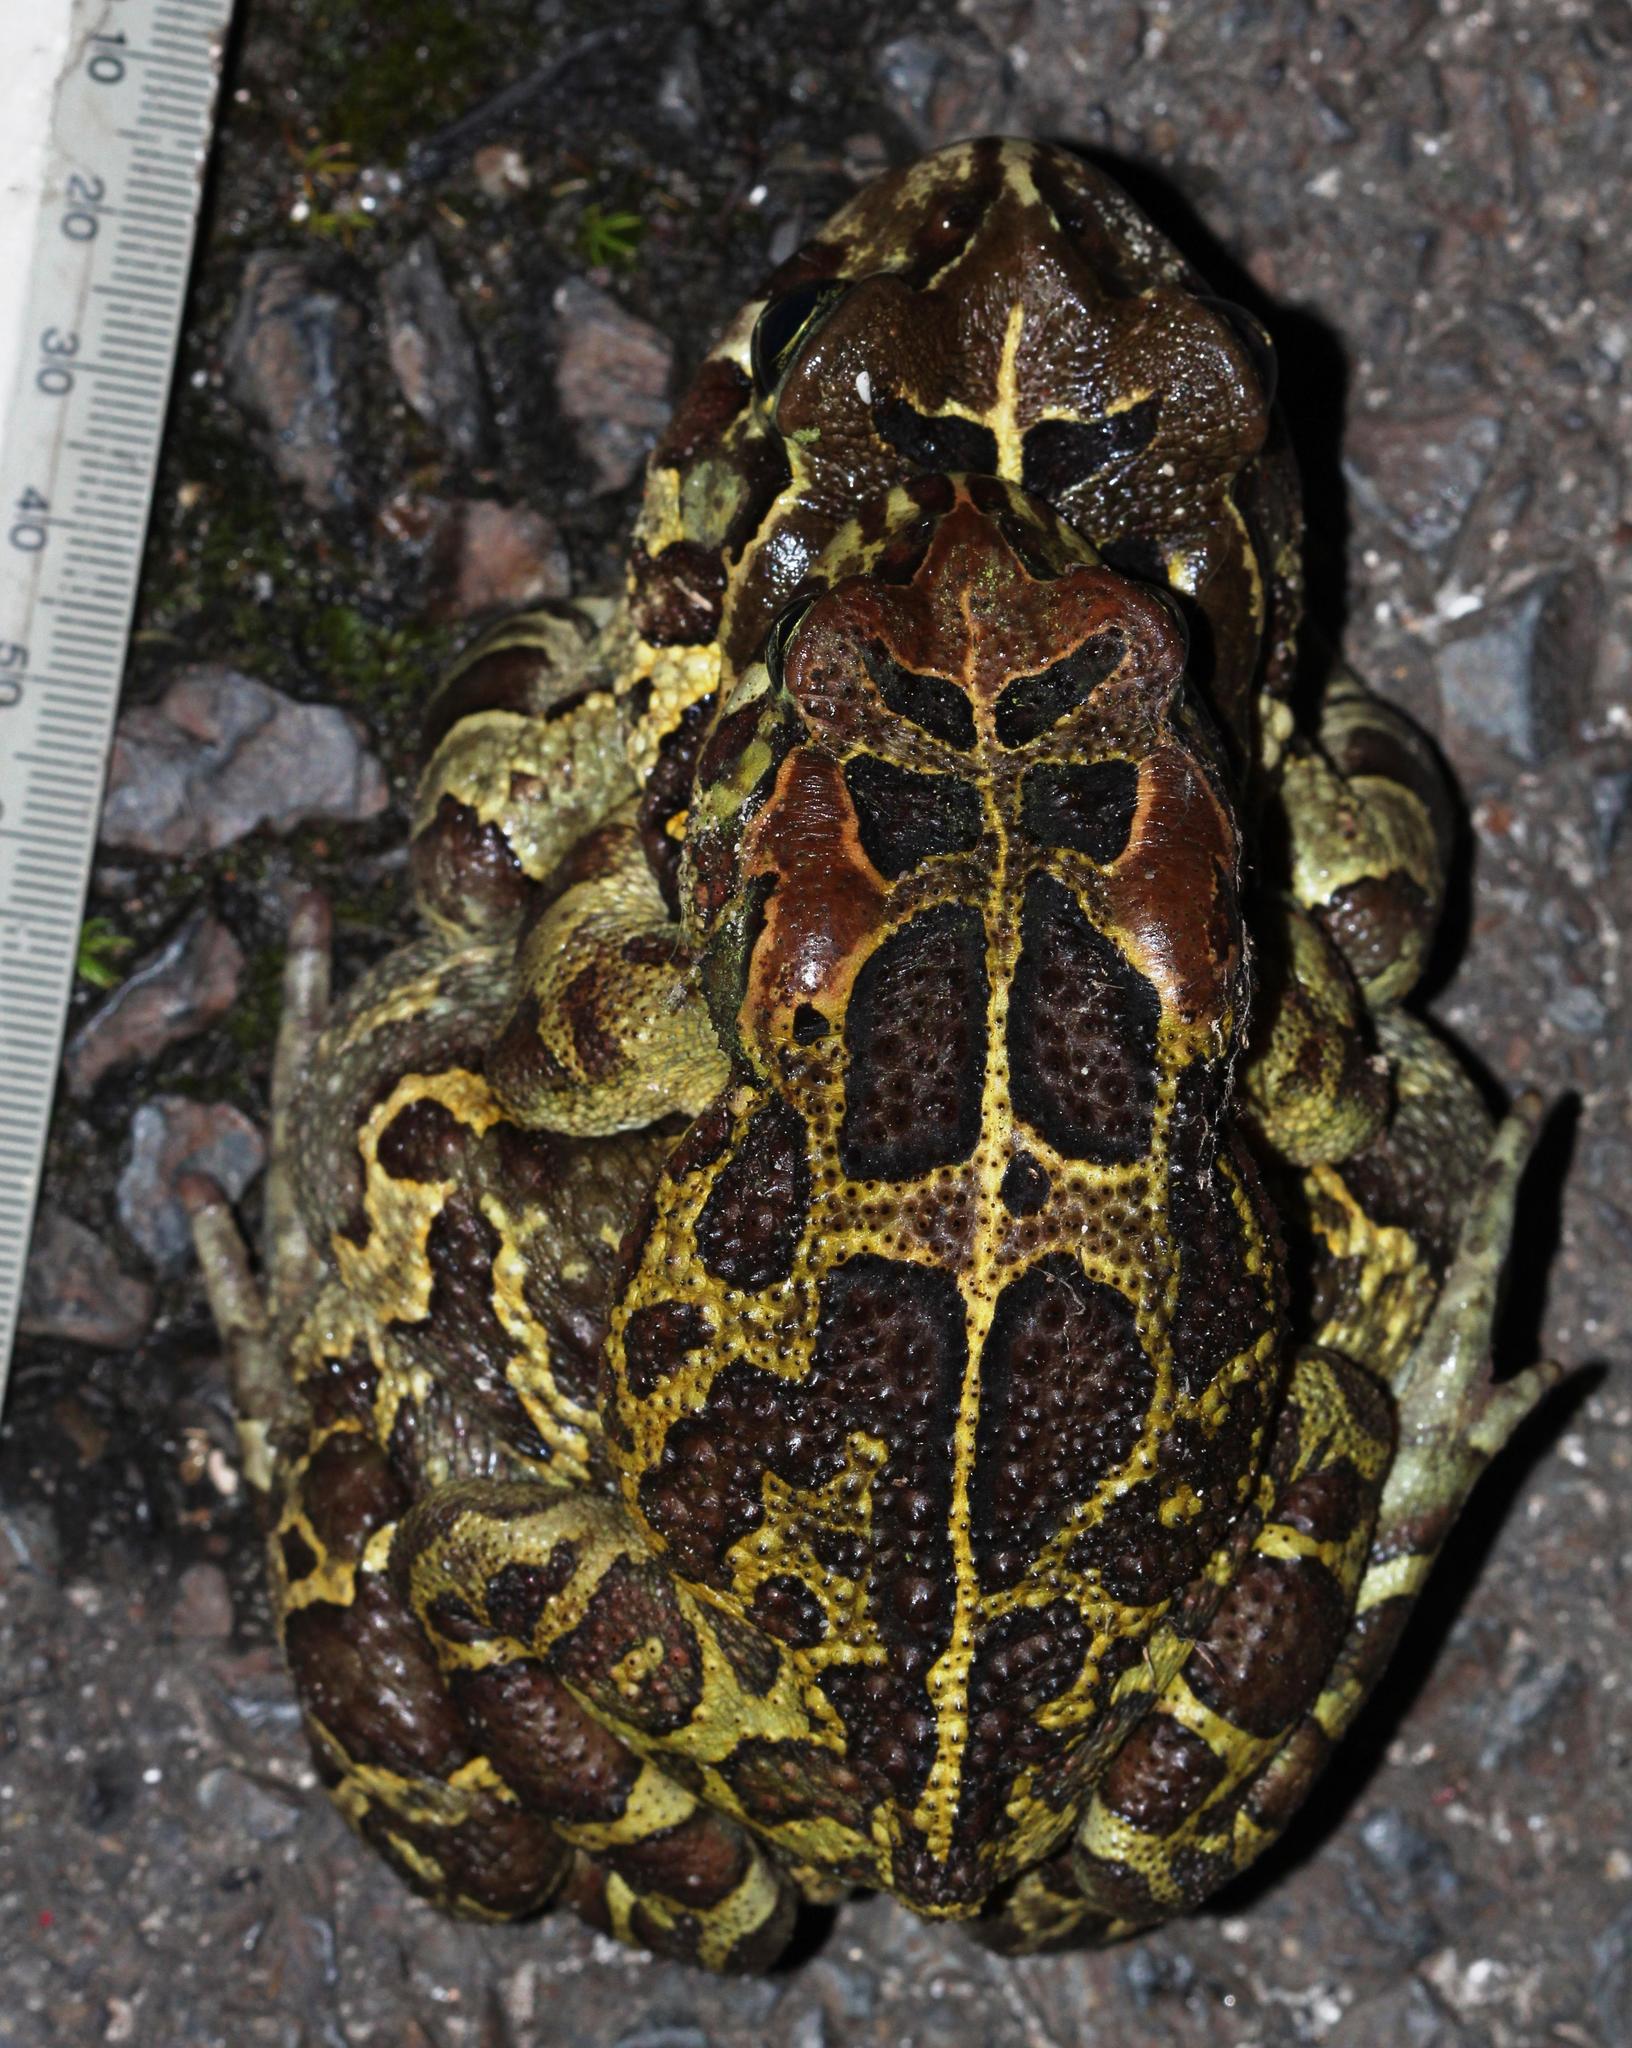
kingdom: Animalia
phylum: Chordata
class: Amphibia
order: Anura
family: Bufonidae
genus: Sclerophrys
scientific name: Sclerophrys pantherina
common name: Panther toad
